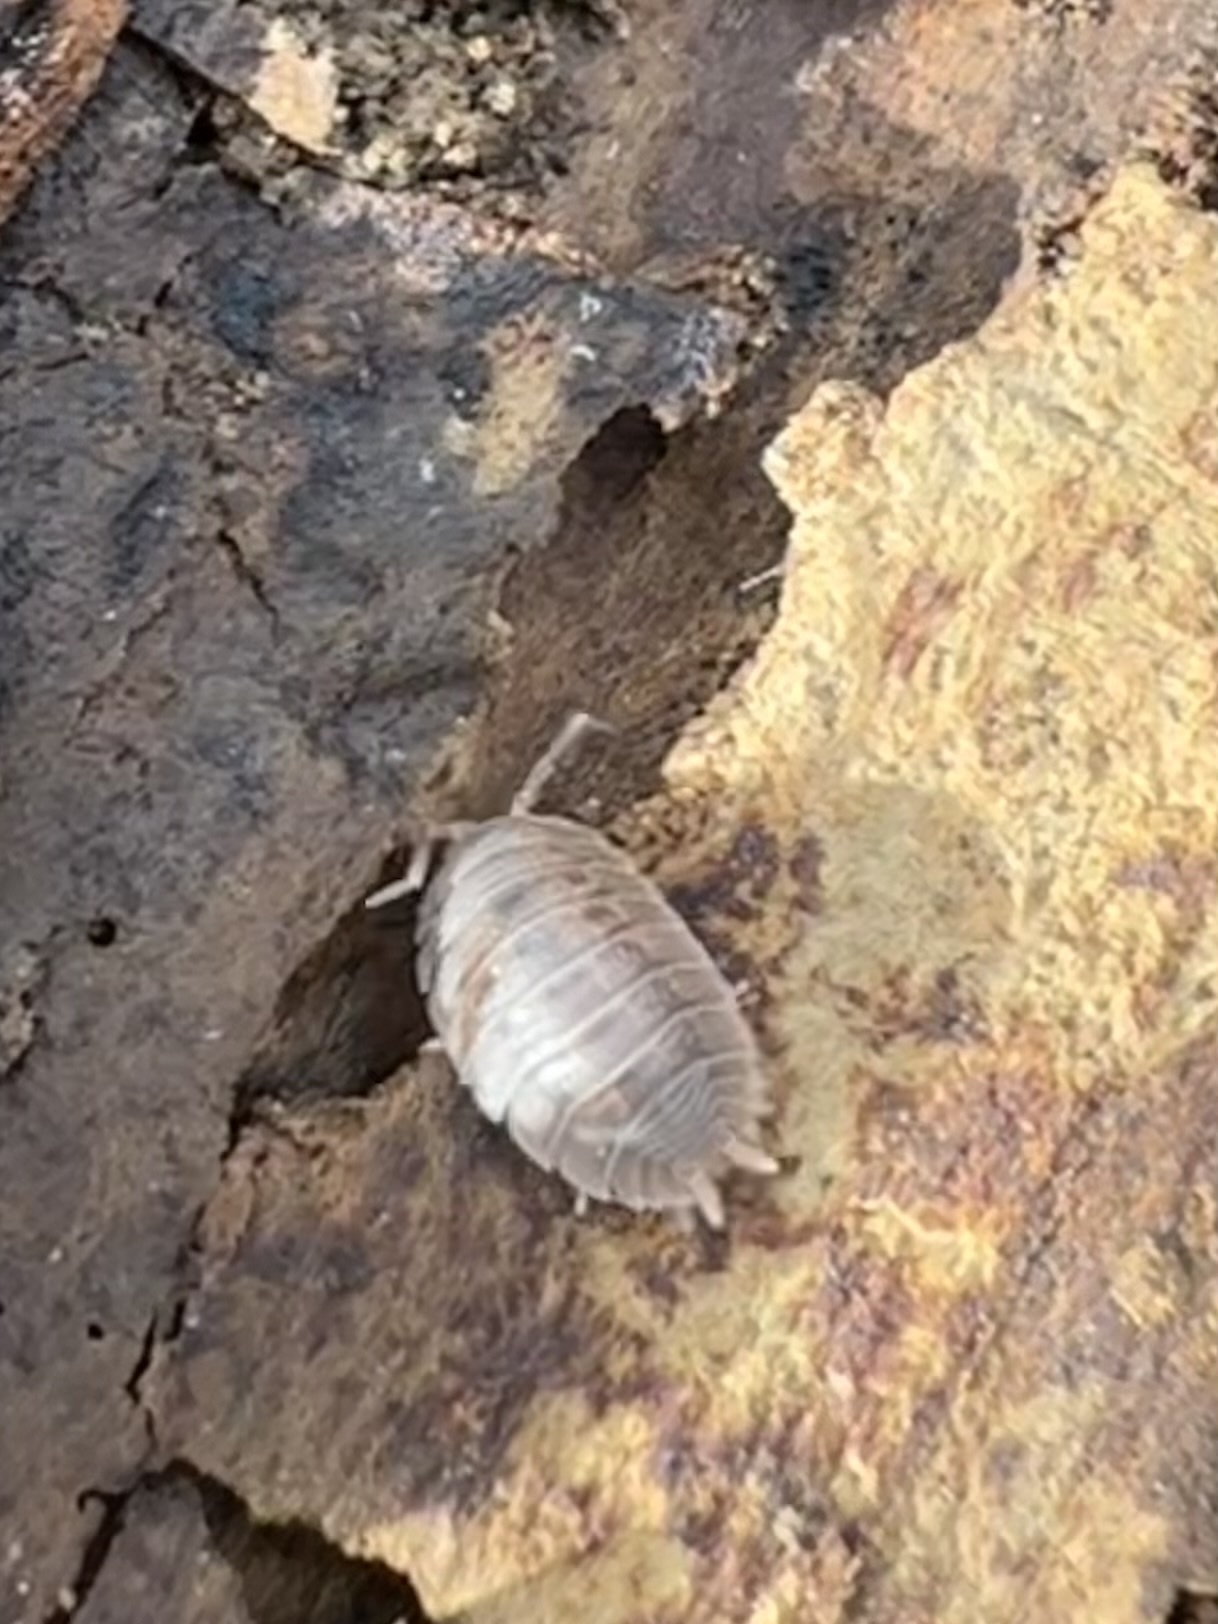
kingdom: Animalia
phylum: Arthropoda
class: Malacostraca
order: Isopoda
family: Porcellionidae
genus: Porcellio
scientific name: Porcellio dilatatus
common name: Isopod
